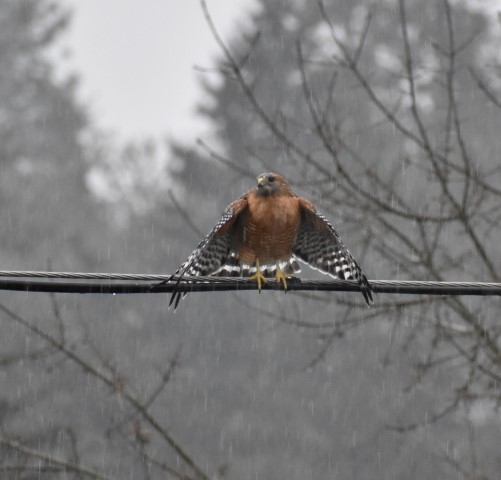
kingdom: Animalia
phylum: Chordata
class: Aves
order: Accipitriformes
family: Accipitridae
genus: Buteo
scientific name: Buteo lineatus
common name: Red-shouldered hawk
